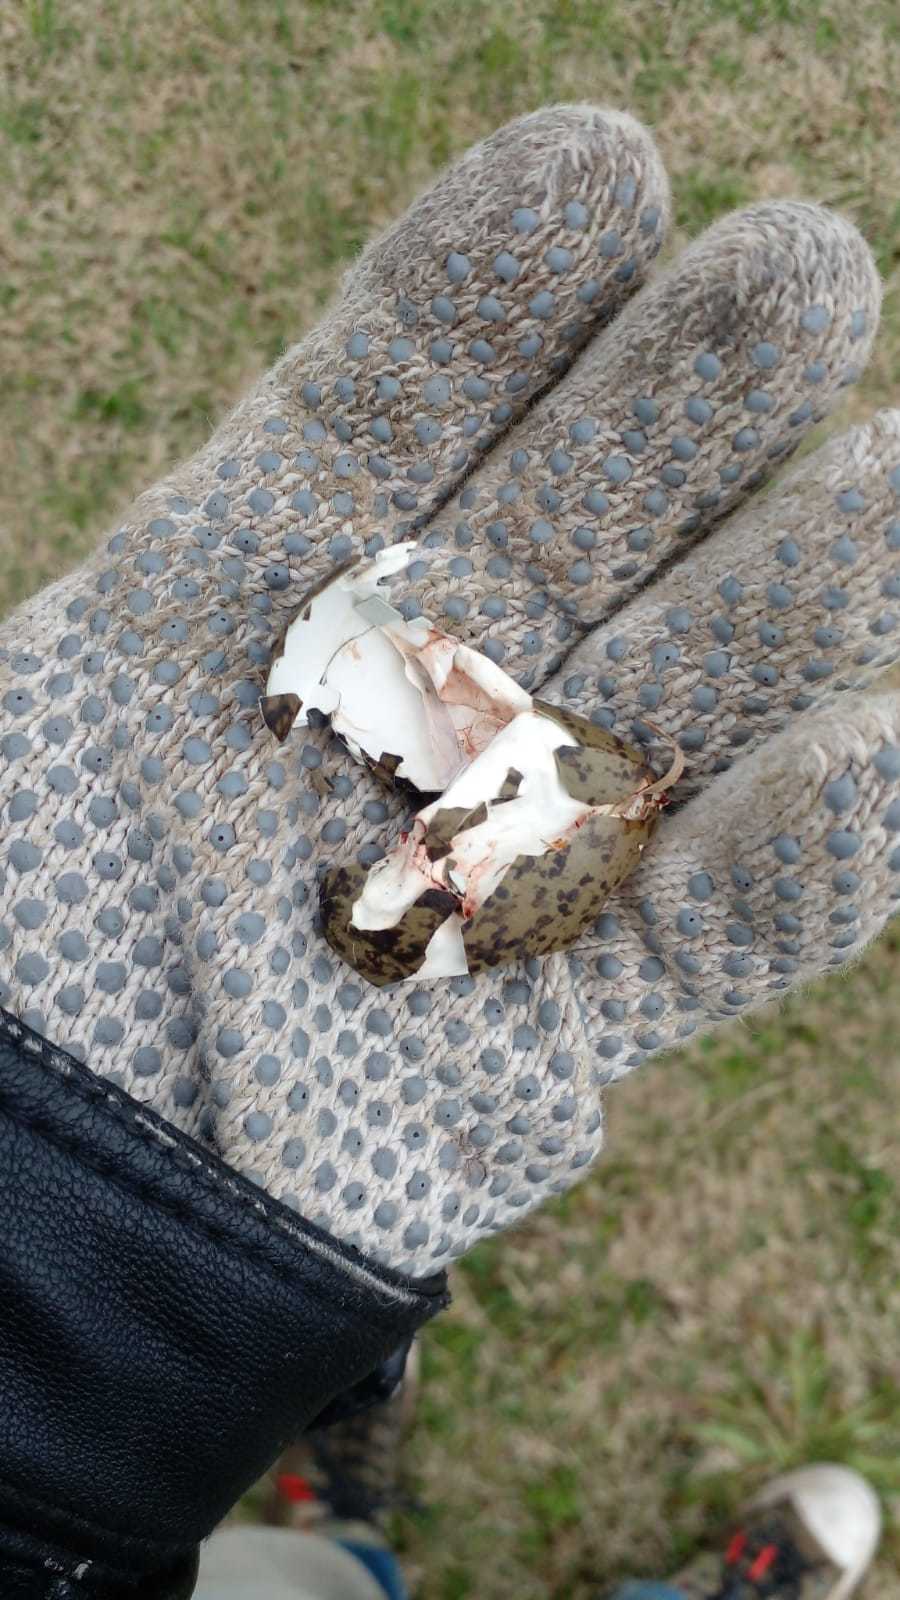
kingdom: Animalia
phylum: Chordata
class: Aves
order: Charadriiformes
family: Charadriidae
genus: Vanellus
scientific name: Vanellus chilensis
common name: Southern lapwing
